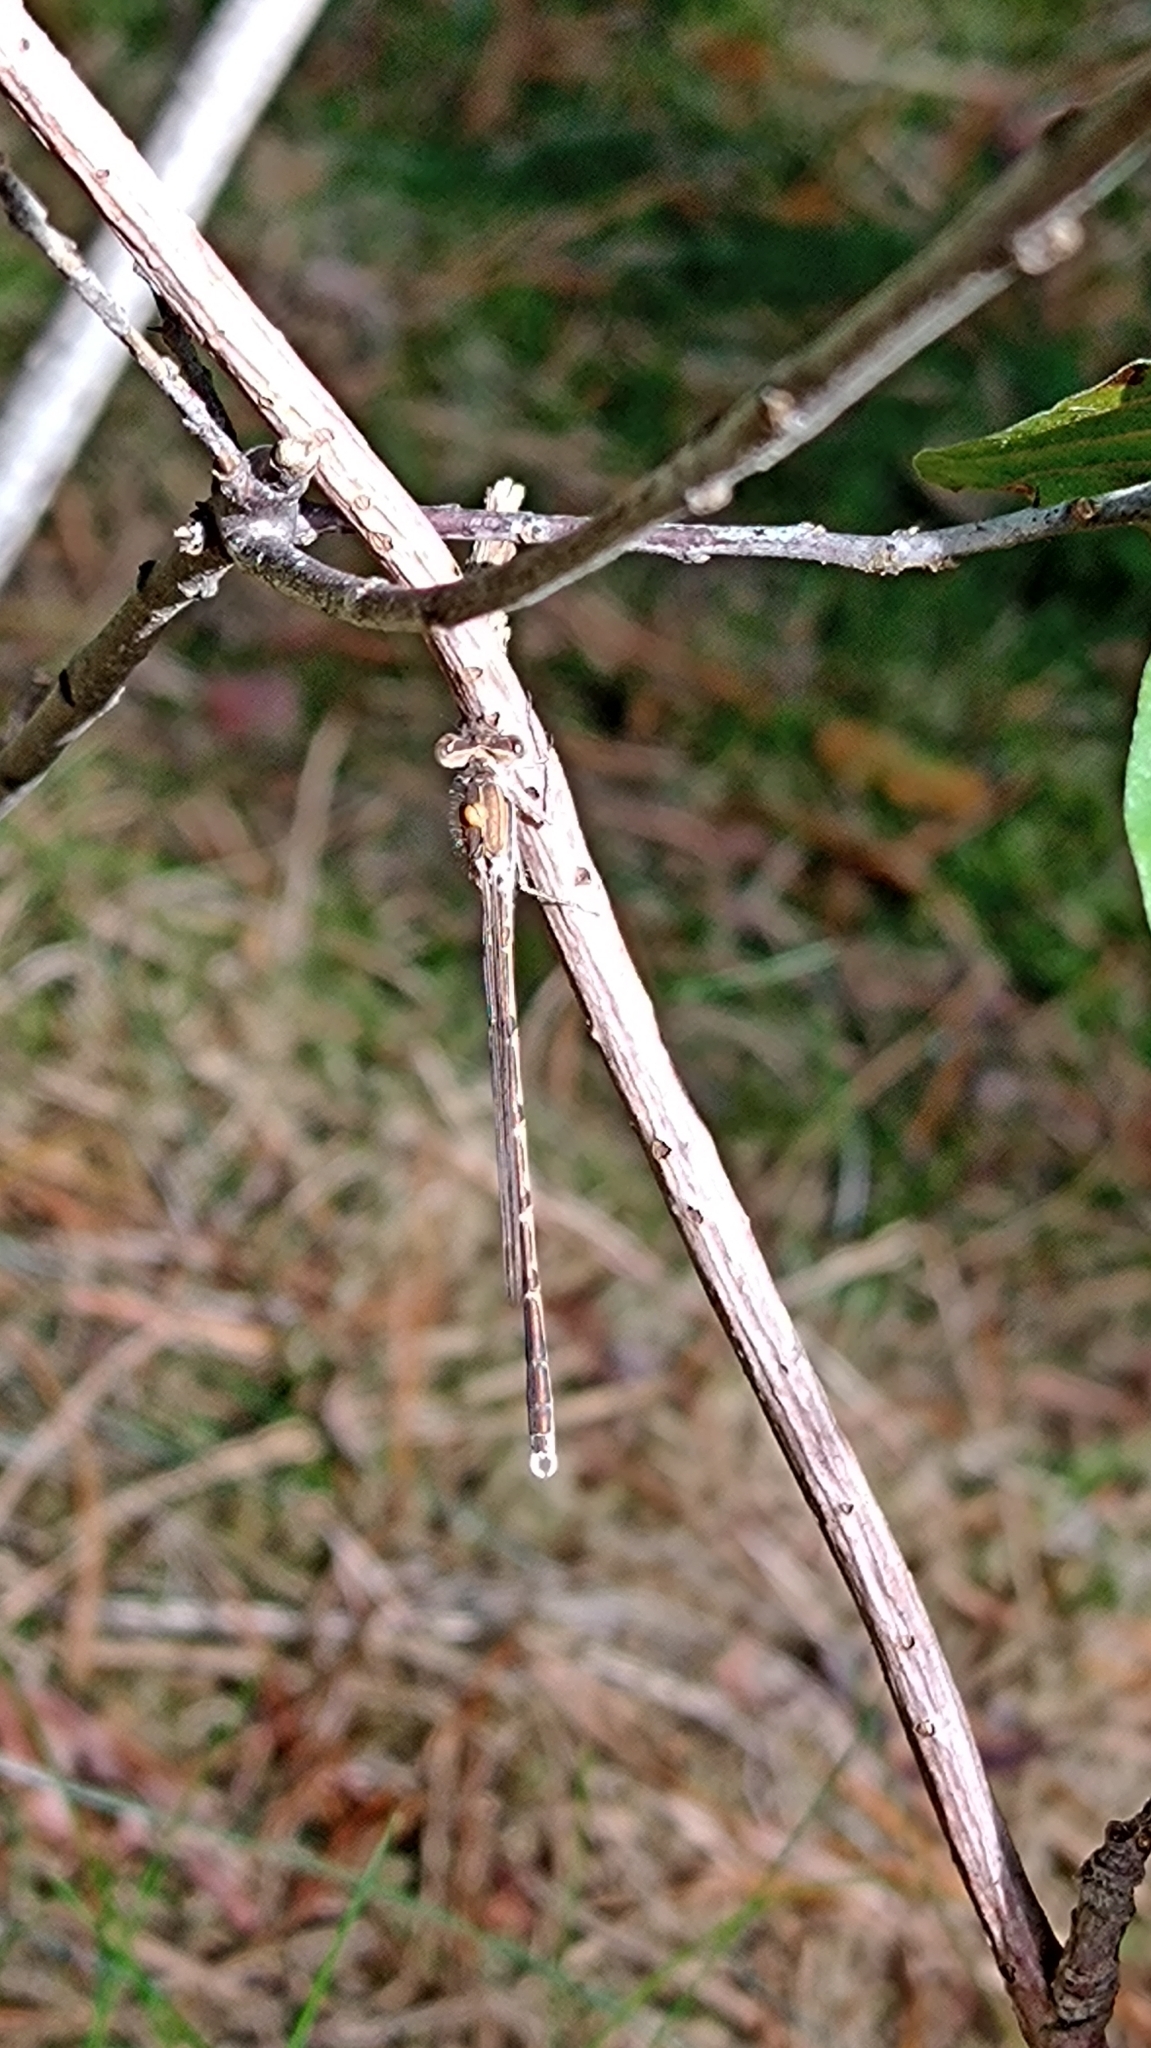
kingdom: Animalia
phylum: Arthropoda
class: Insecta
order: Odonata
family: Lestidae
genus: Sympecma
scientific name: Sympecma fusca
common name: Common winter damsel
